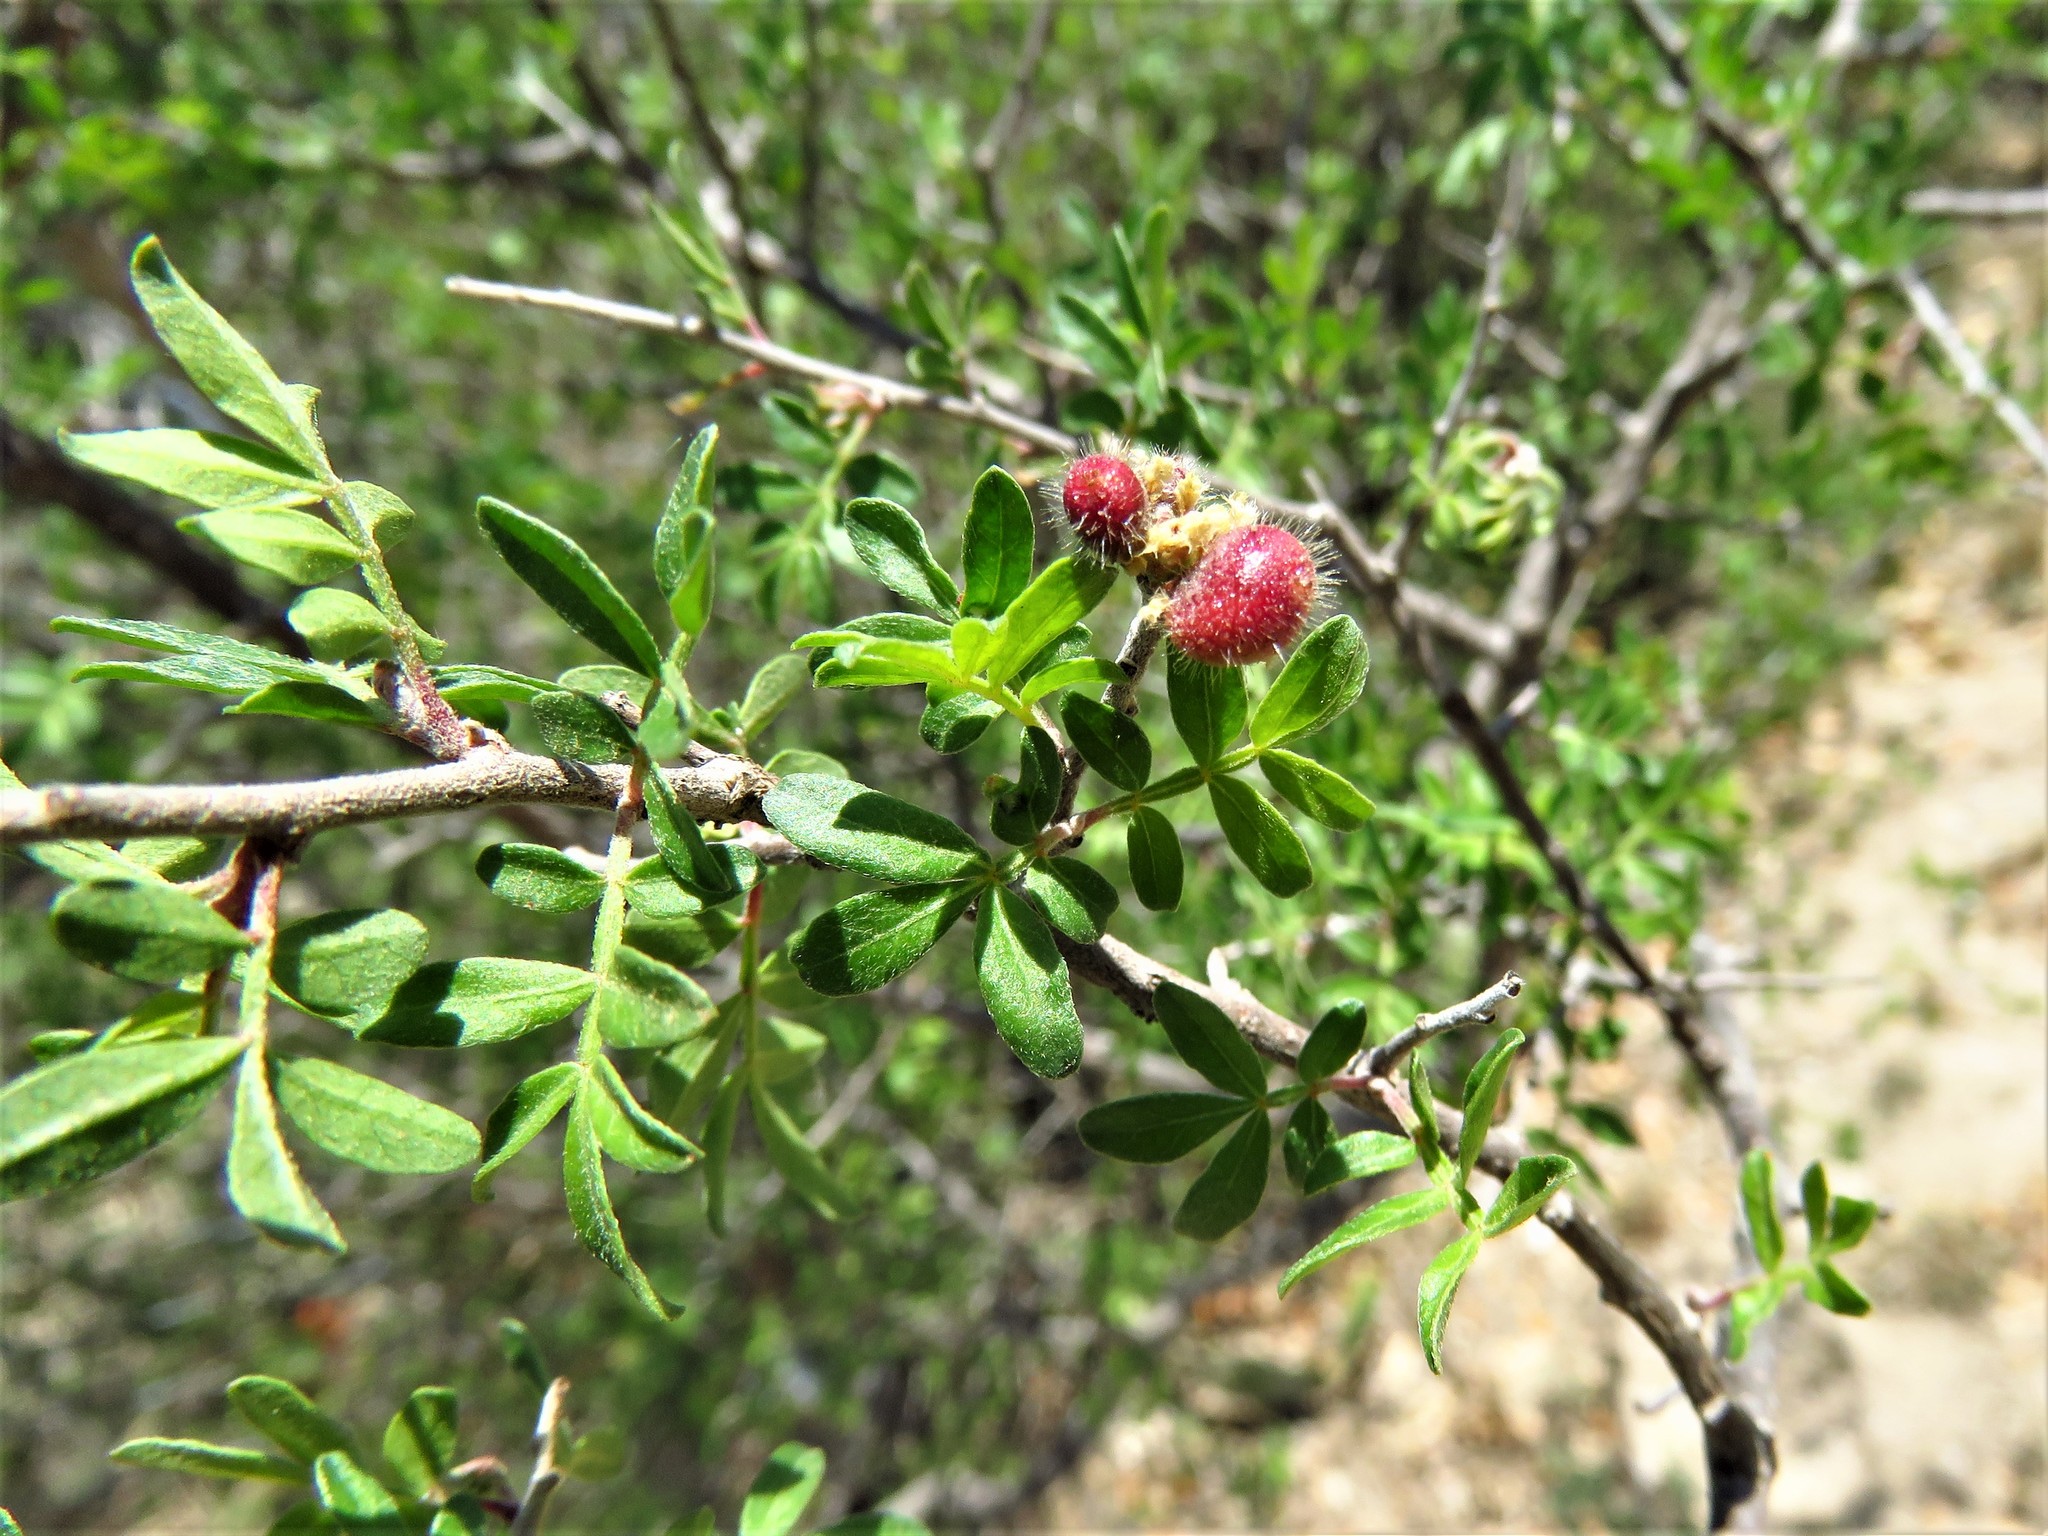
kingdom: Plantae
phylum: Tracheophyta
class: Magnoliopsida
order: Sapindales
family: Anacardiaceae
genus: Rhus
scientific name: Rhus microphylla
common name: Desert sumac
